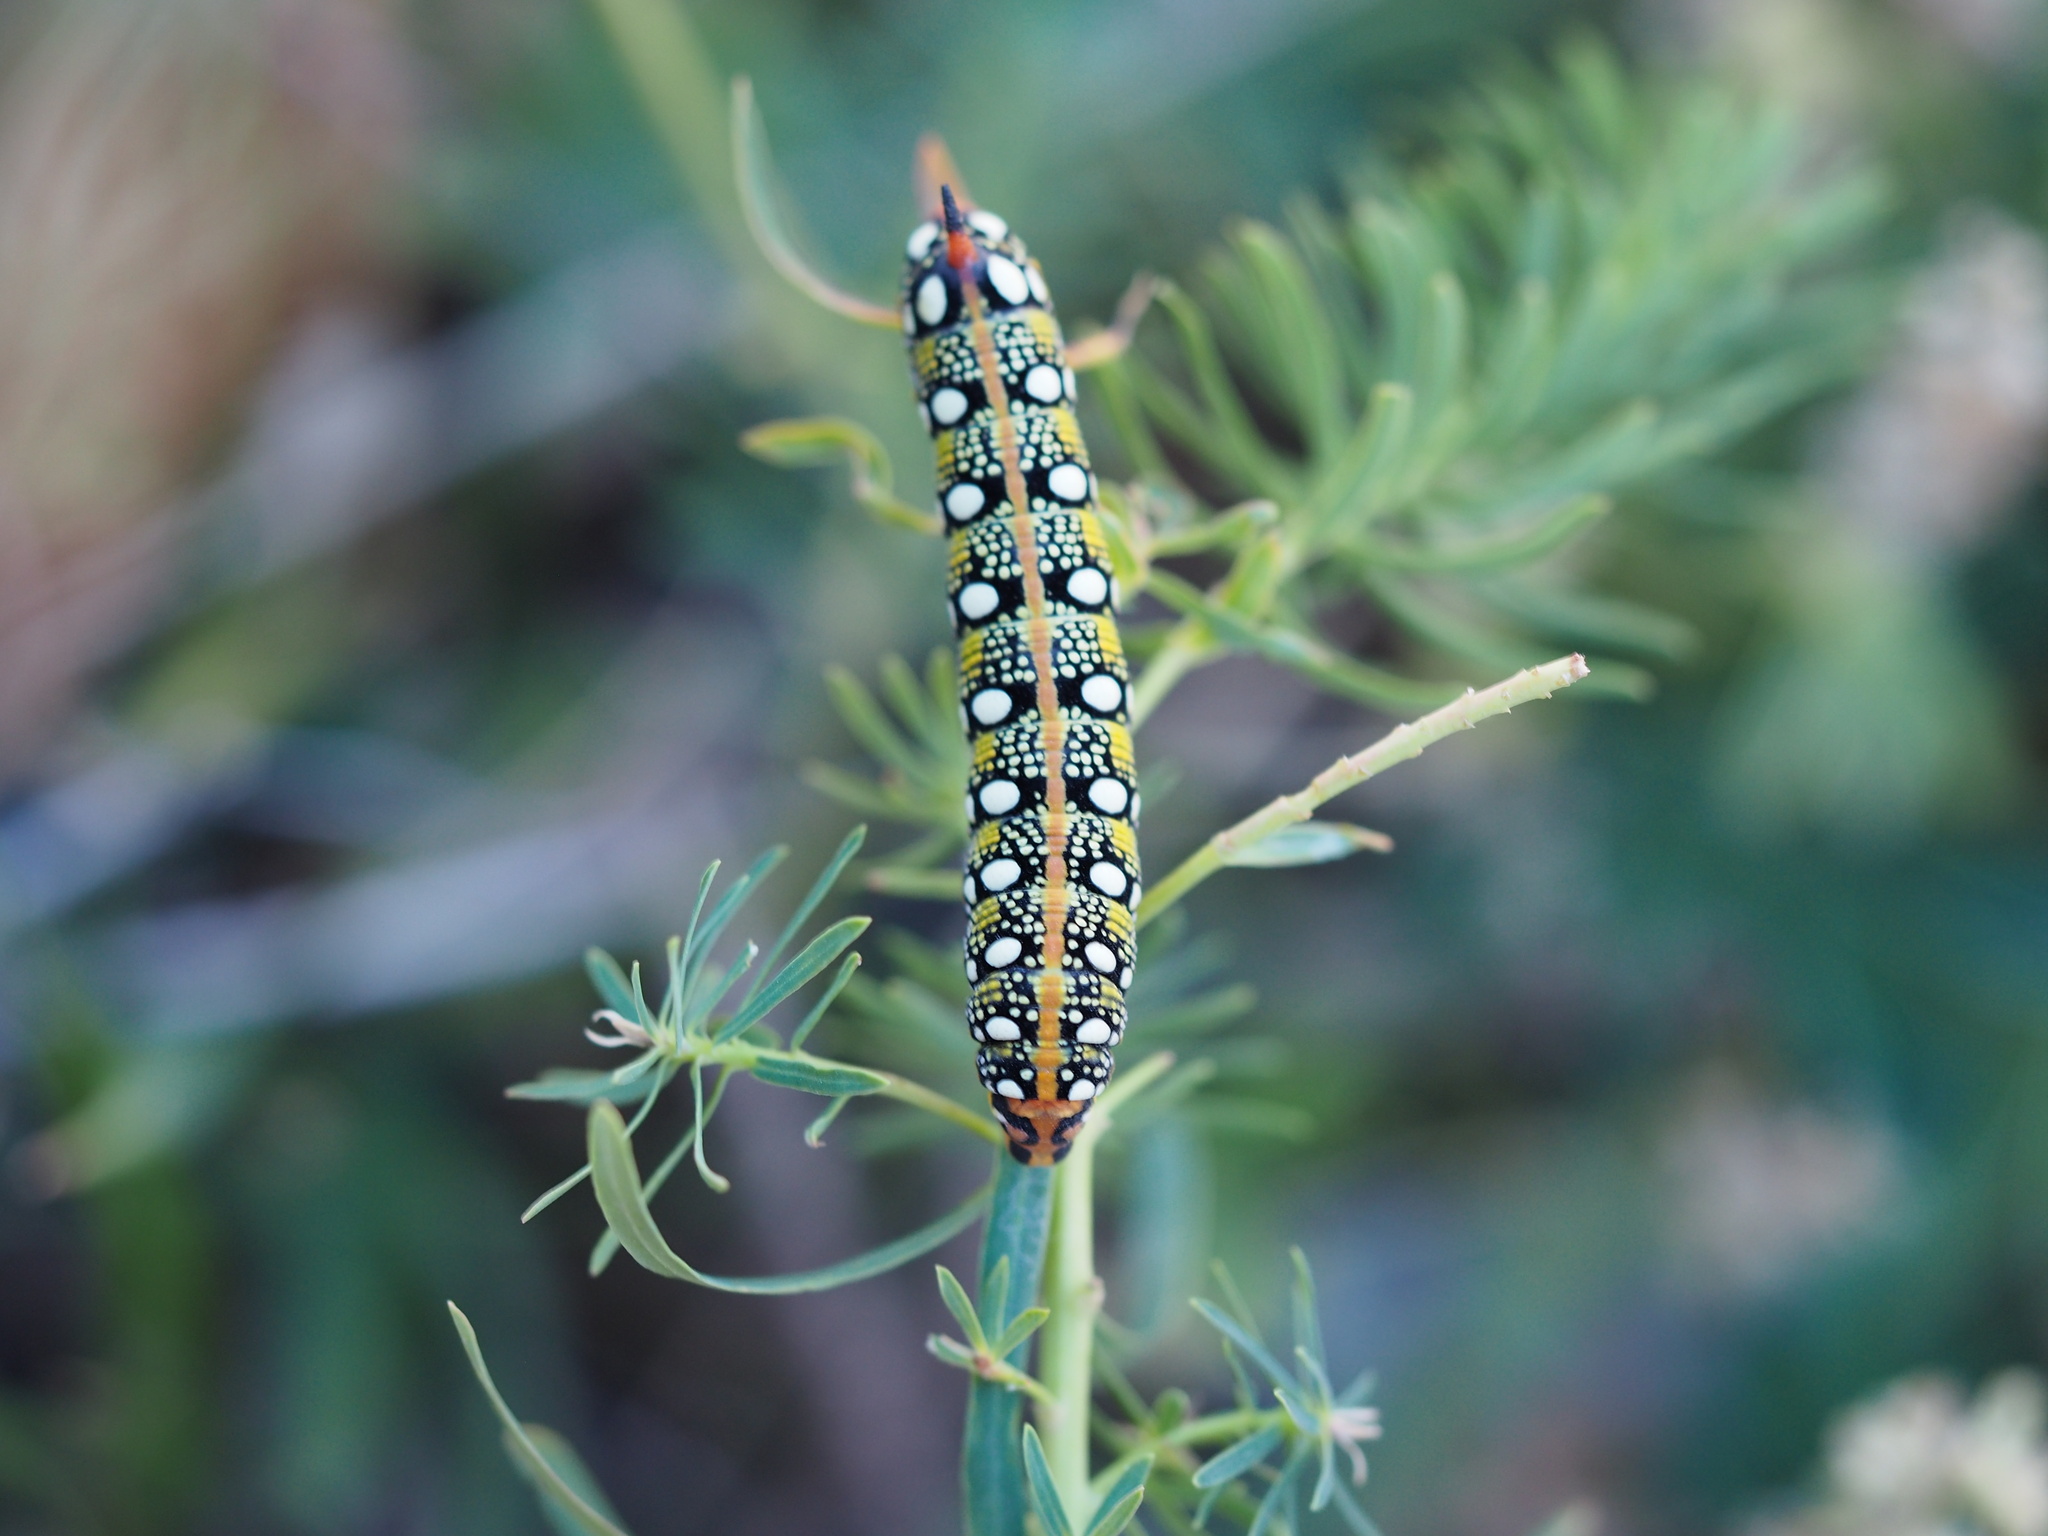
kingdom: Animalia
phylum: Arthropoda
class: Insecta
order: Lepidoptera
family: Sphingidae
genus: Hyles
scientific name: Hyles euphorbiae
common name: Spurge hawk-moth
